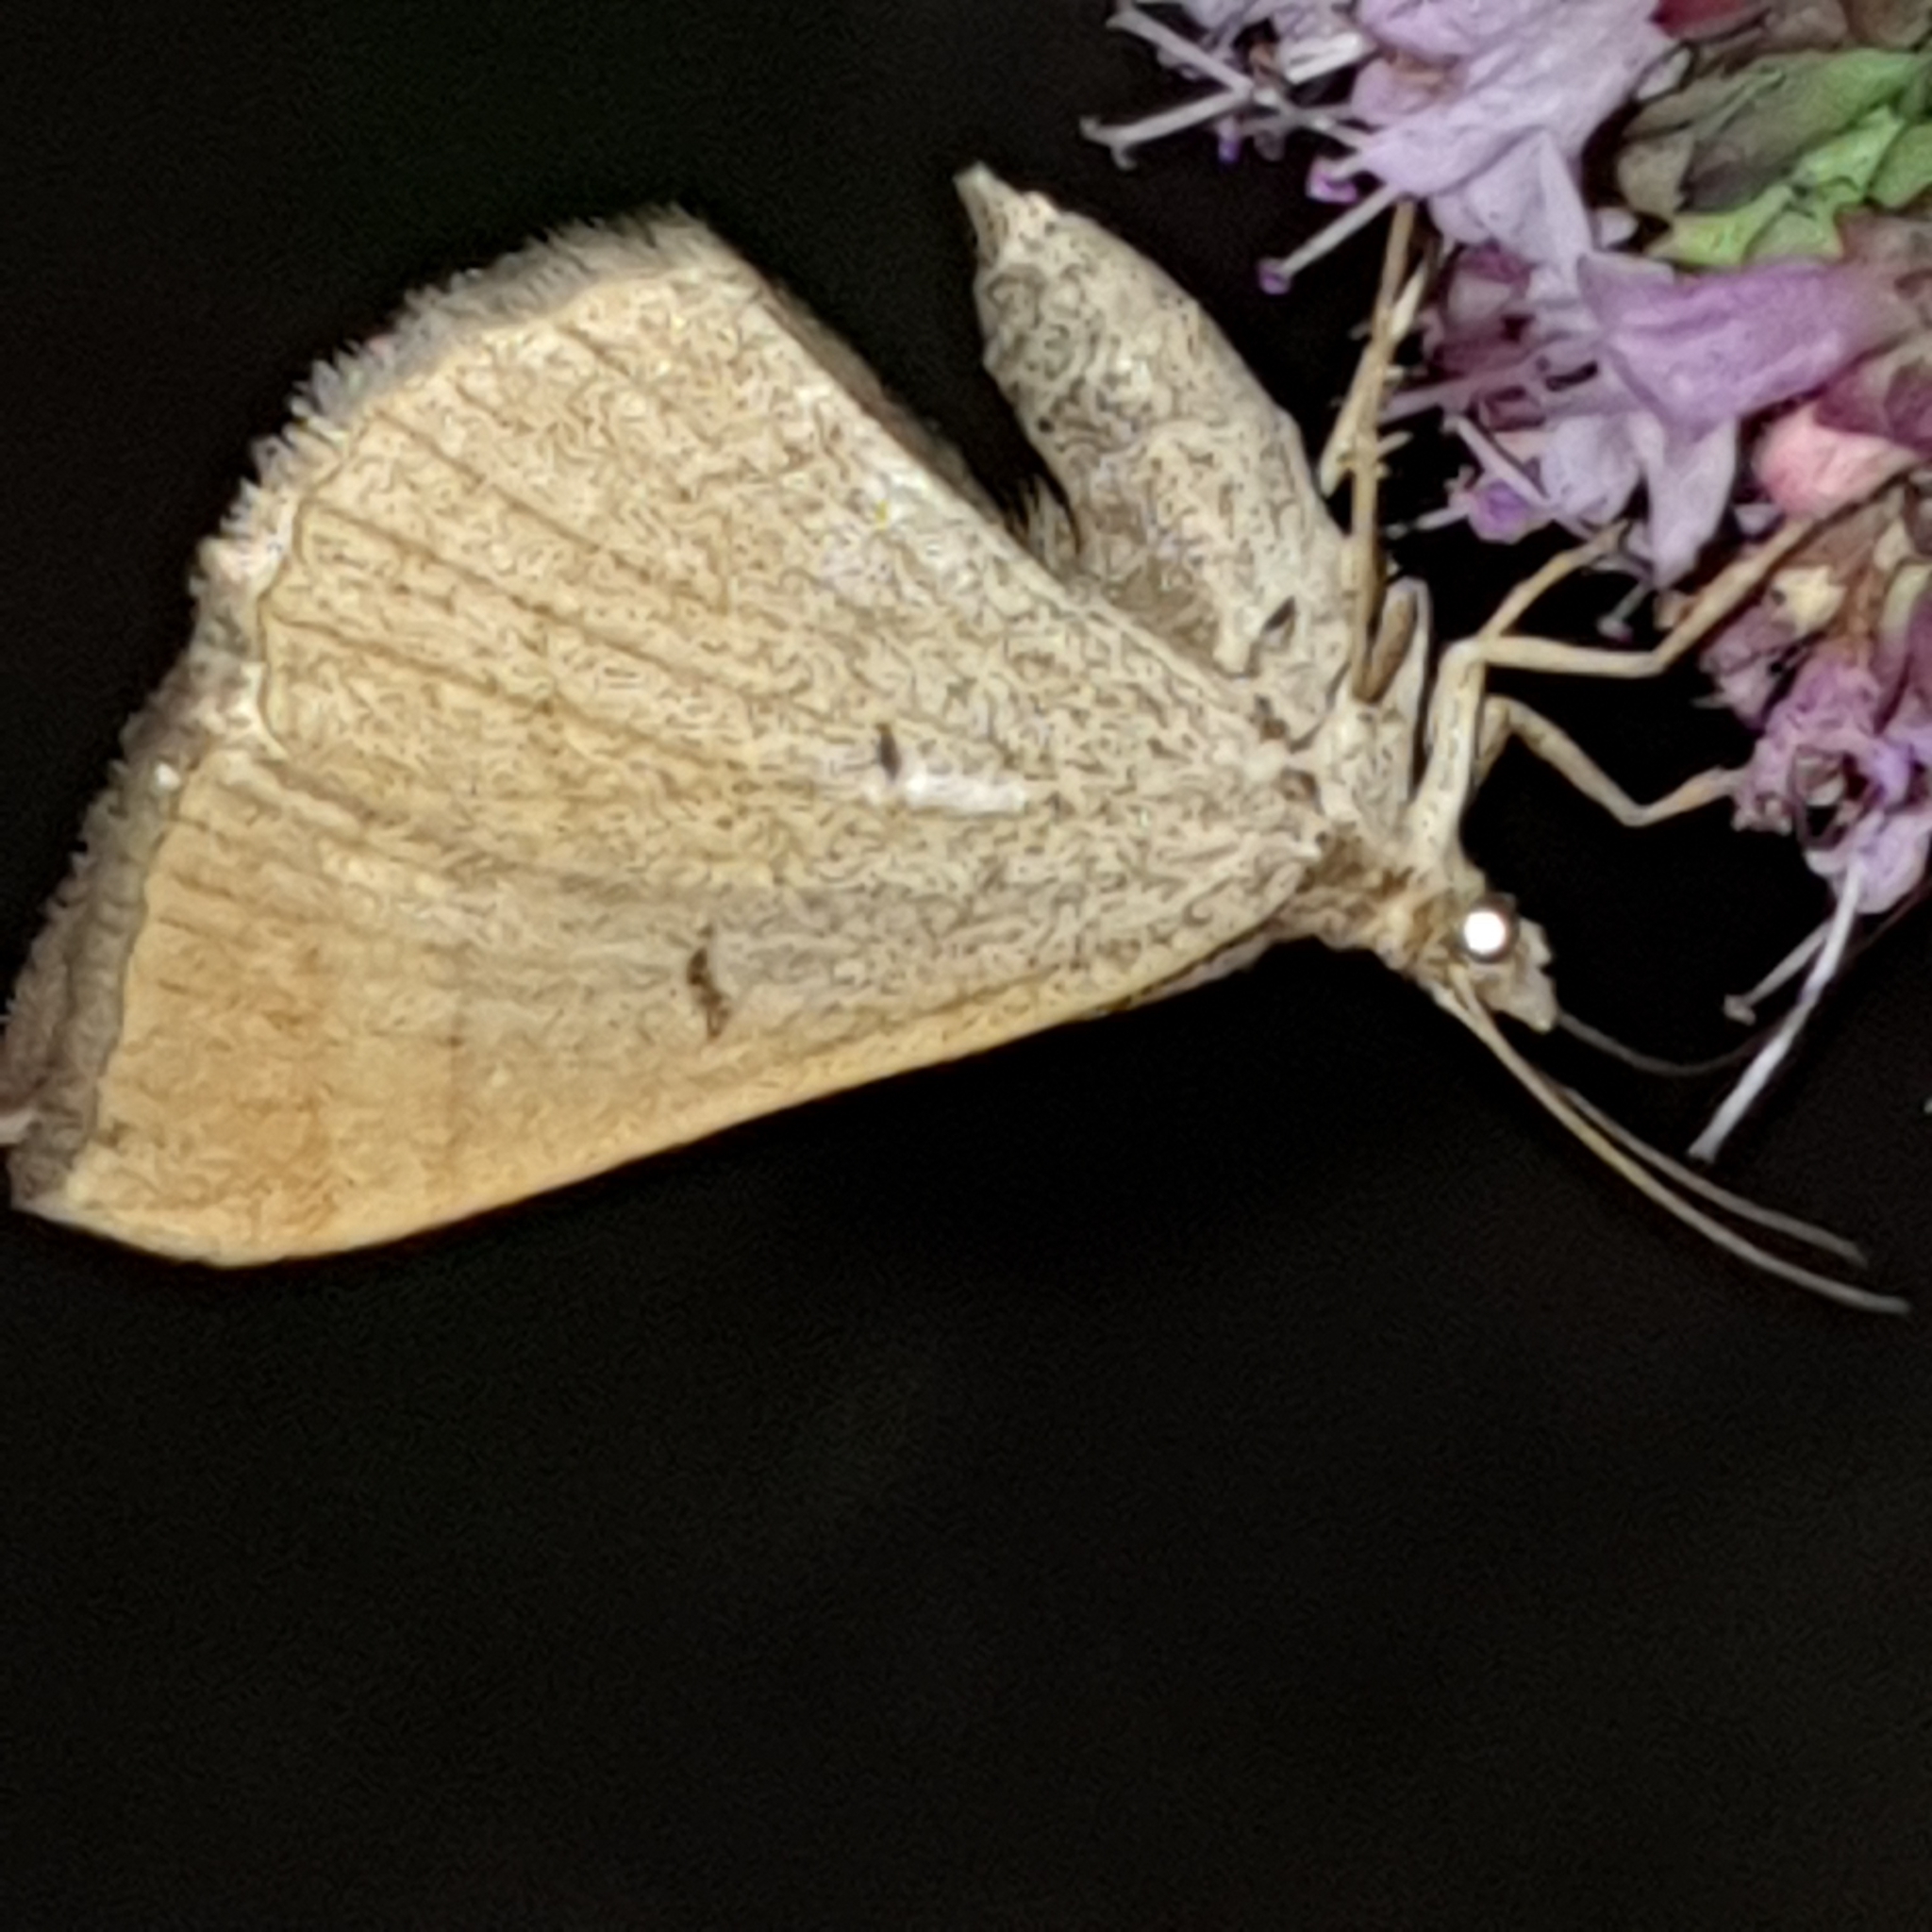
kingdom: Animalia
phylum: Arthropoda
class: Insecta
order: Lepidoptera
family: Geometridae
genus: Scotopteryx
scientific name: Scotopteryx chenopodiata
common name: Shaded broad-bar
